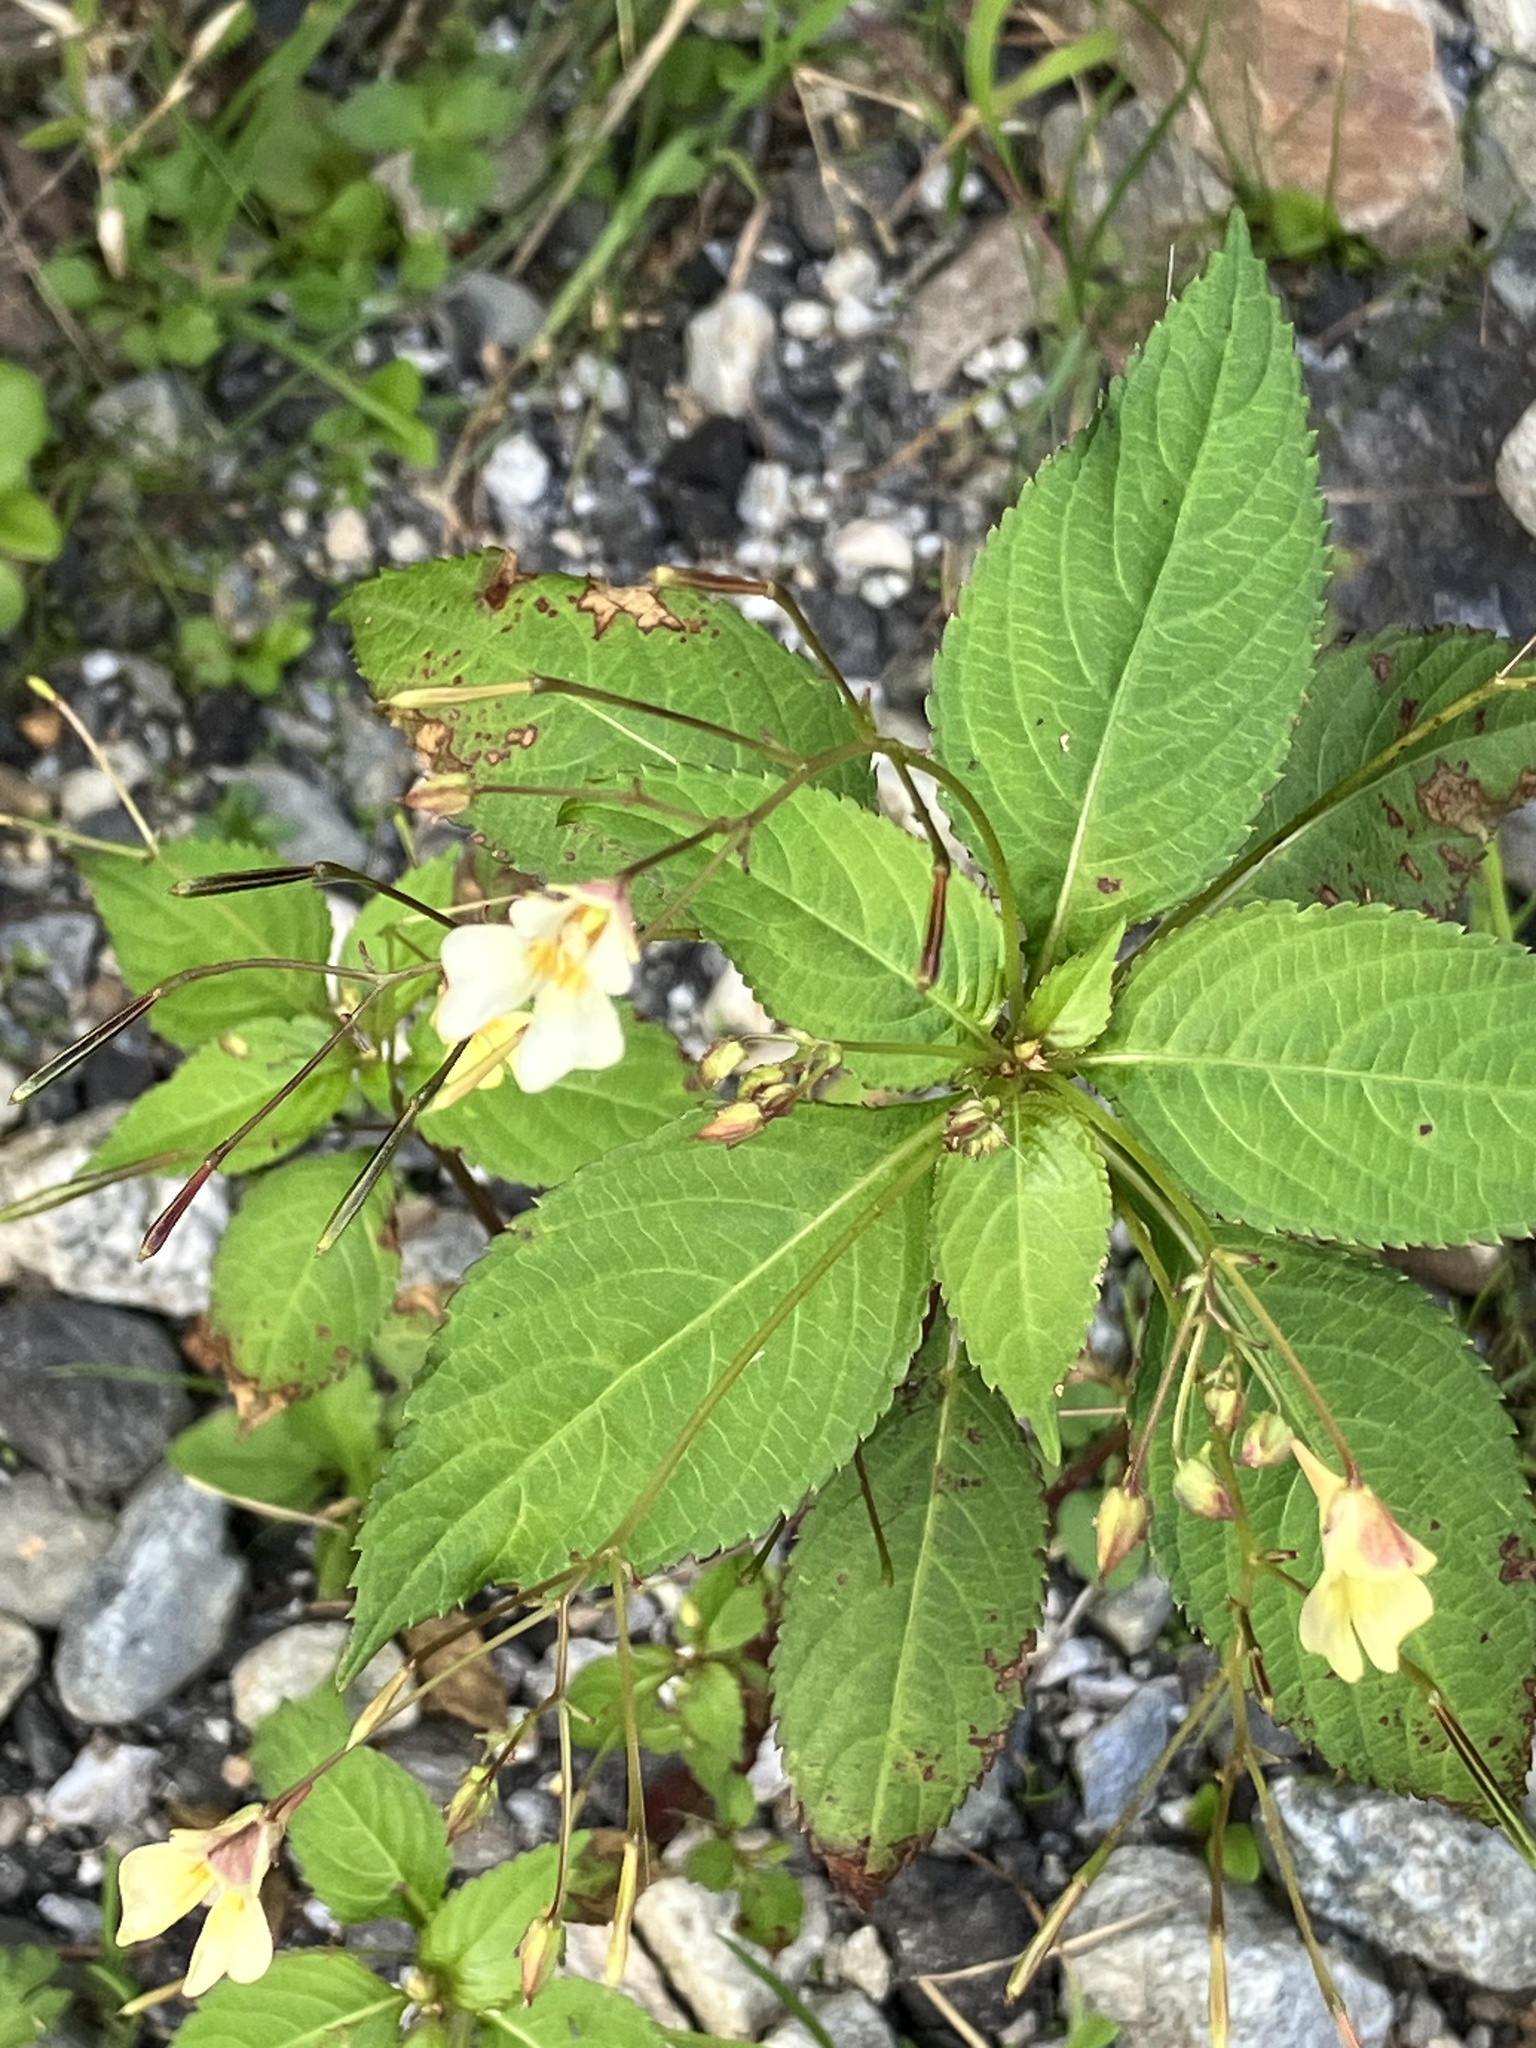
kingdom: Plantae
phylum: Tracheophyta
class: Magnoliopsida
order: Ericales
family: Balsaminaceae
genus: Impatiens
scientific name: Impatiens parviflora
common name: Small balsam
